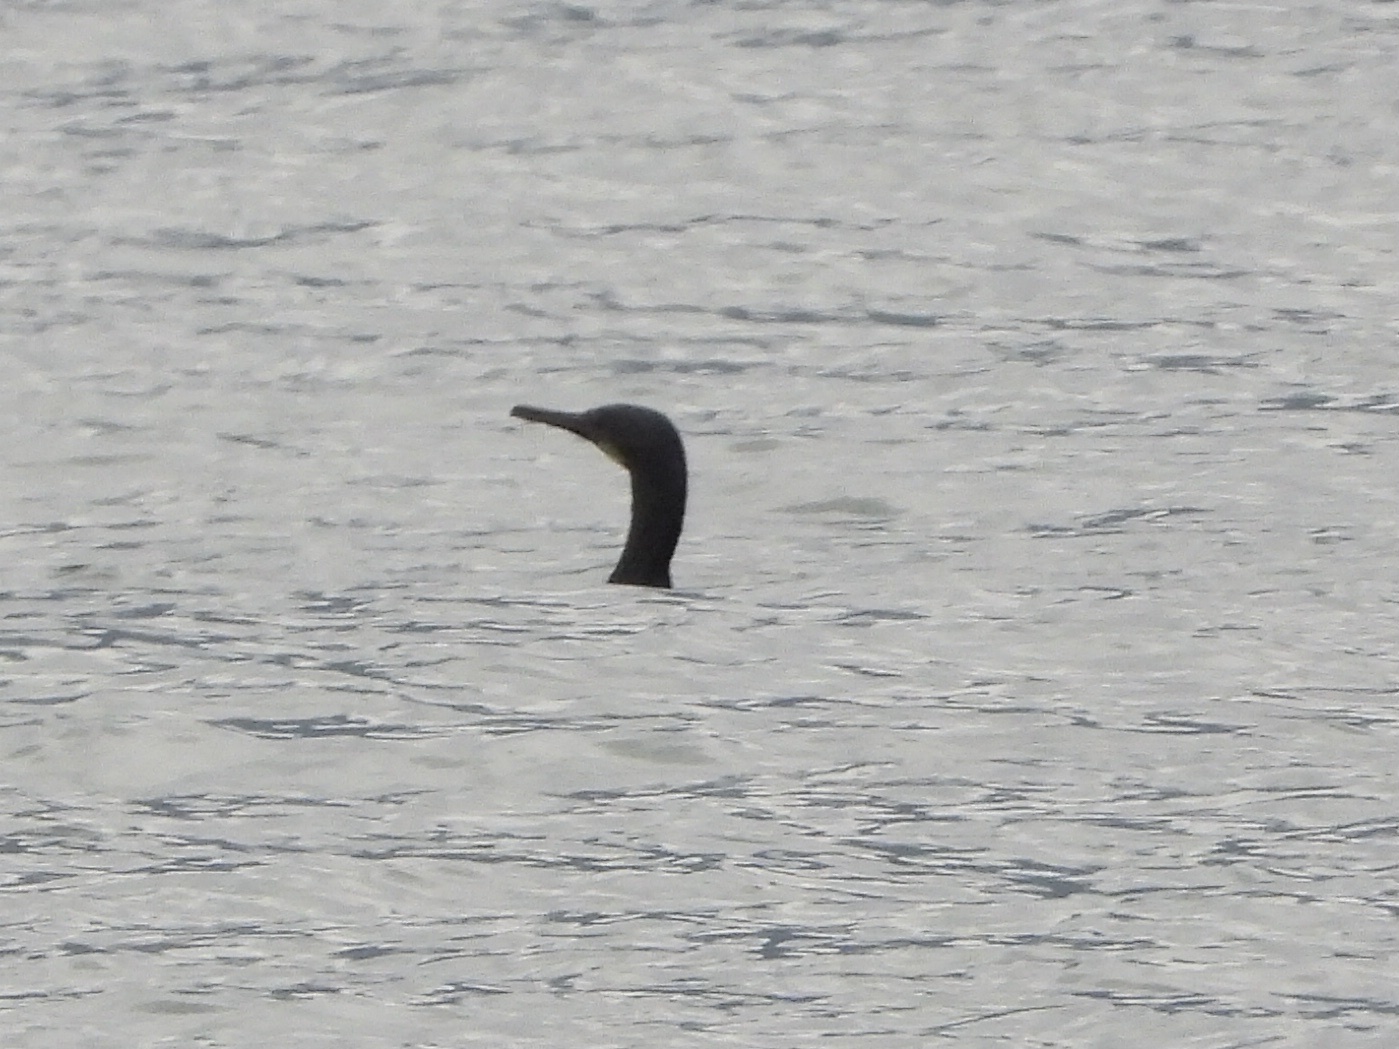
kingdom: Animalia
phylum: Chordata
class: Aves
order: Suliformes
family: Phalacrocoracidae
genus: Urile
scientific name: Urile penicillatus
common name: Brandt's cormorant
